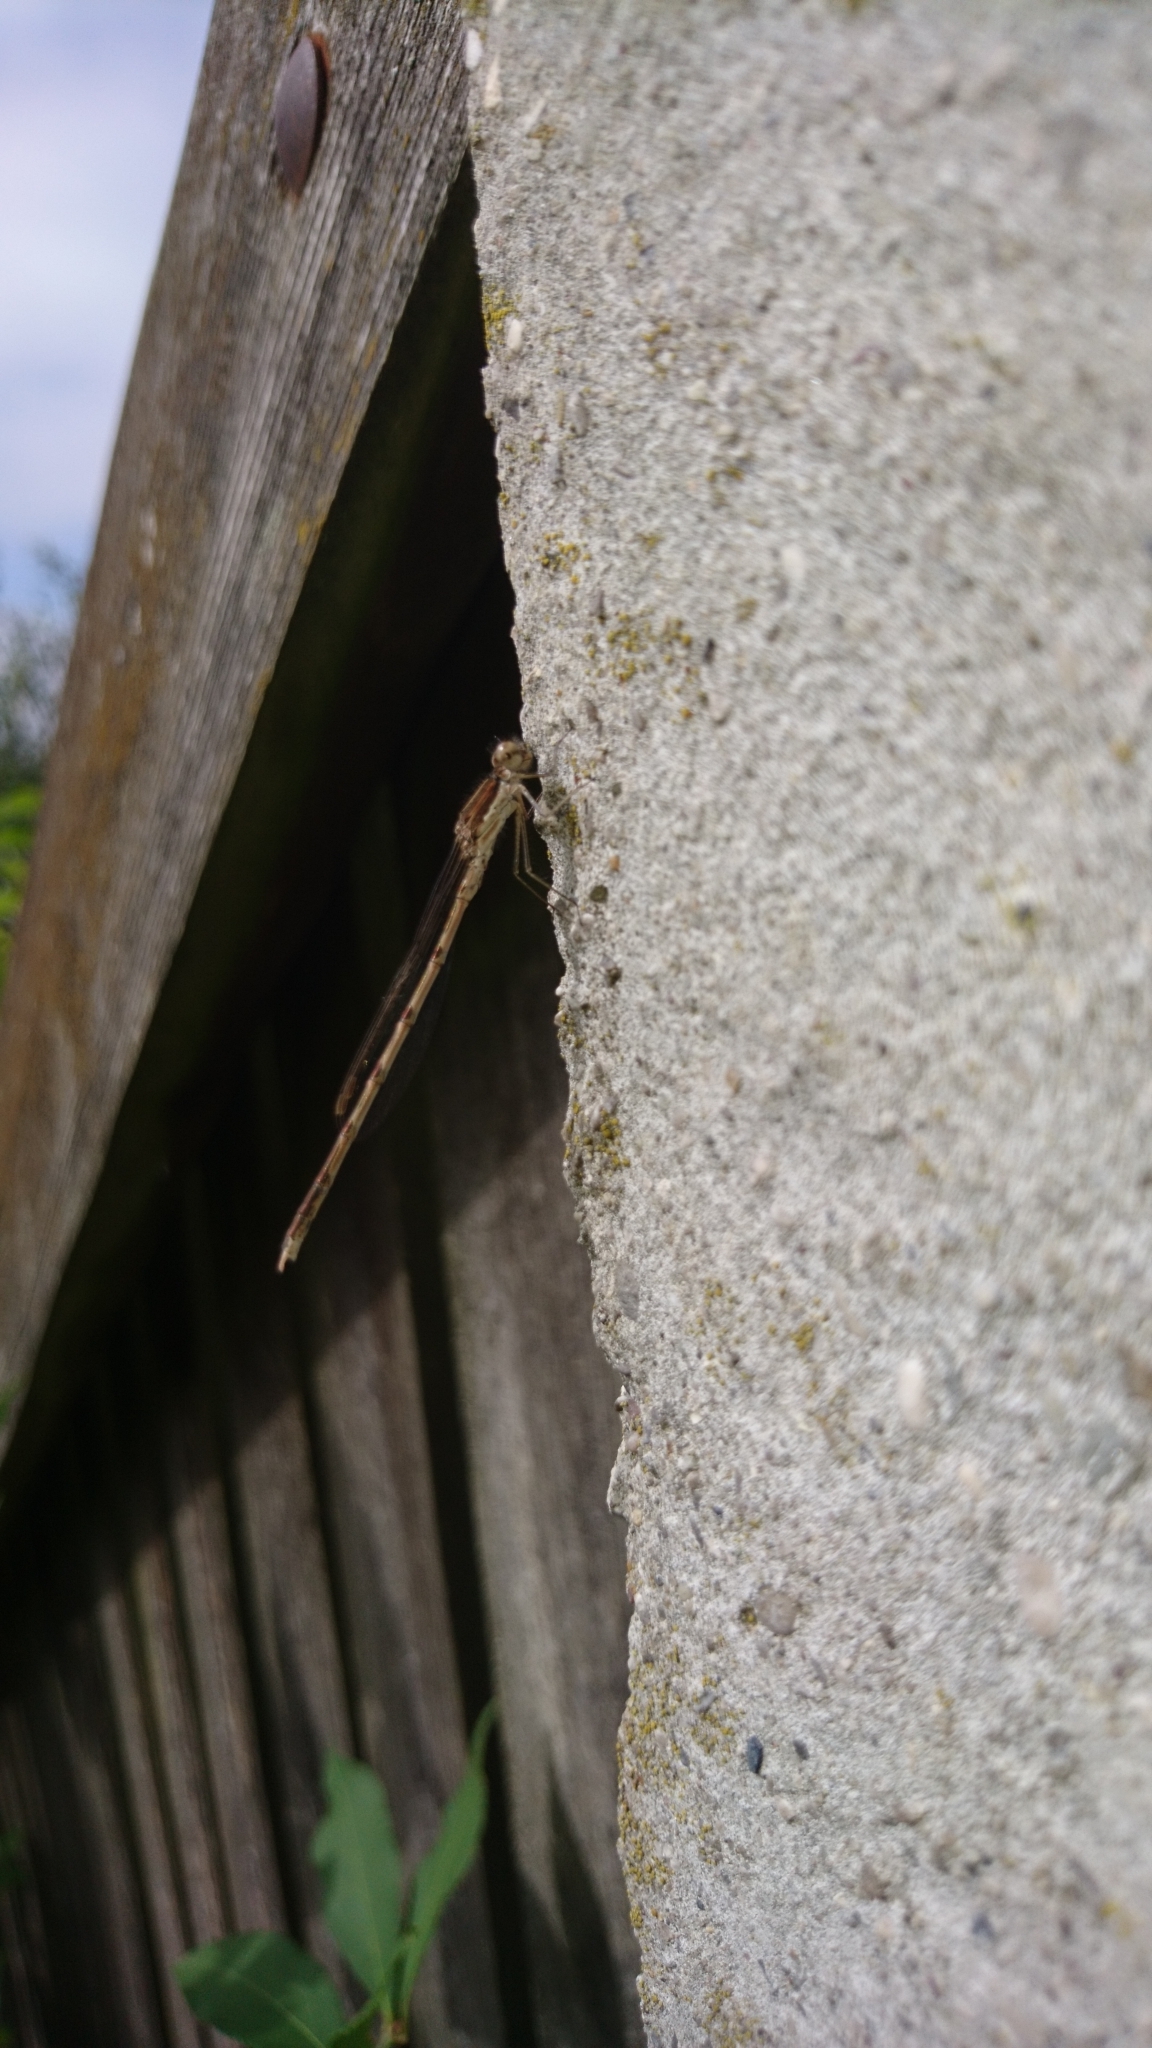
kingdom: Animalia
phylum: Arthropoda
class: Insecta
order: Odonata
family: Lestidae
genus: Sympecma
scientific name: Sympecma fusca
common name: Common winter damsel
